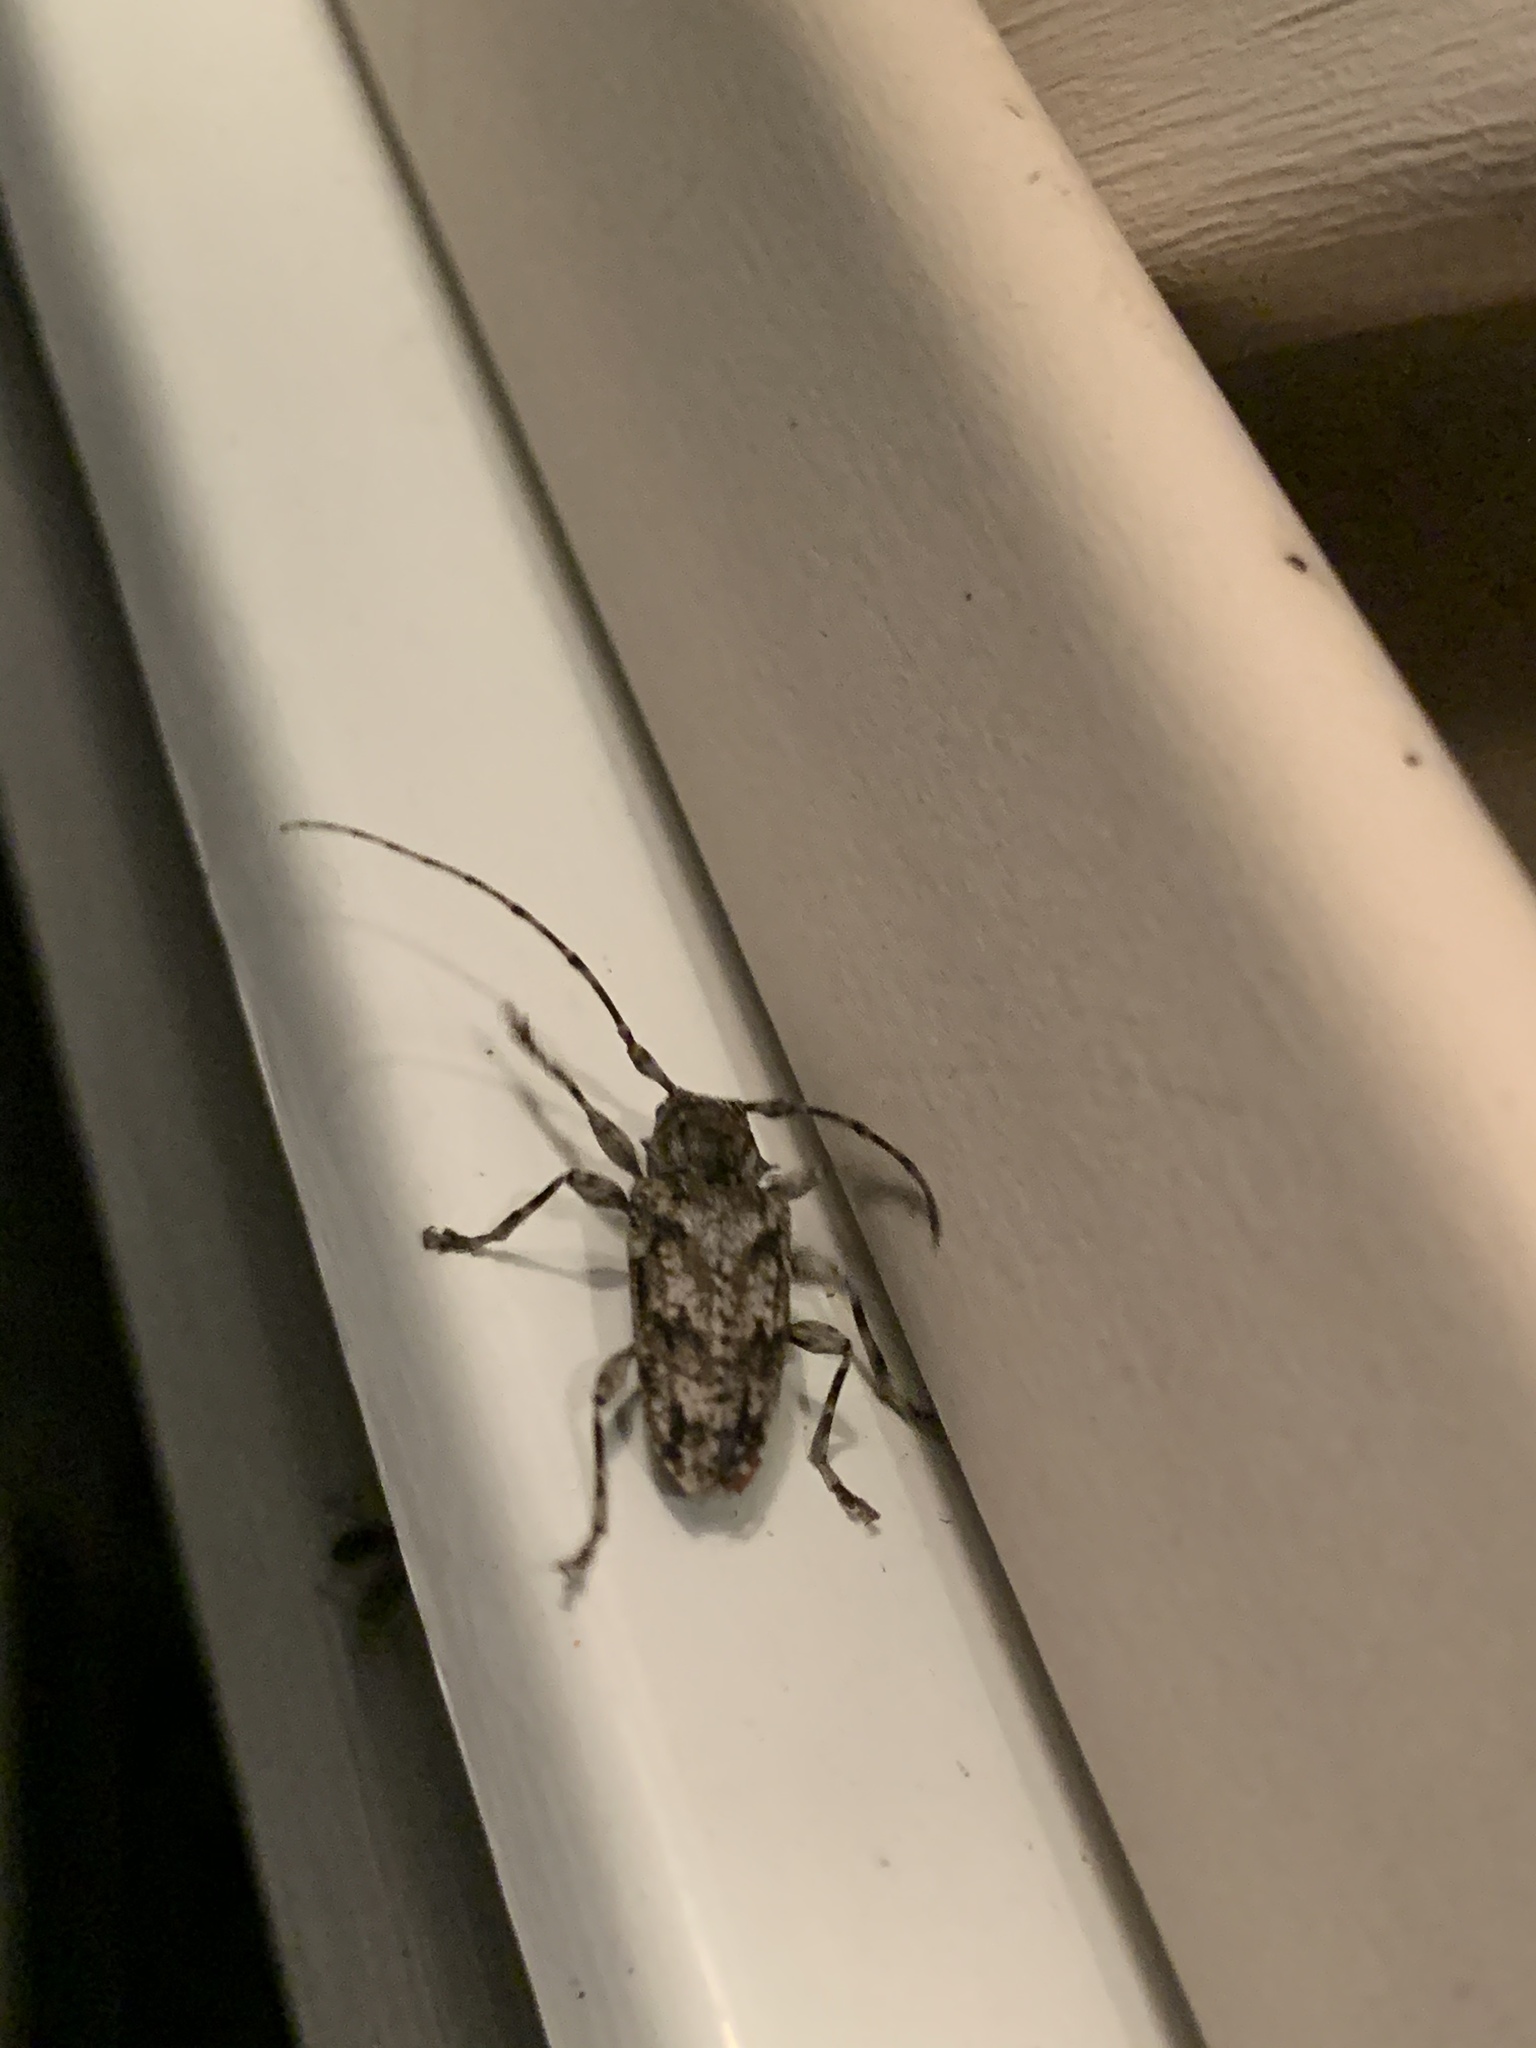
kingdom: Animalia
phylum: Arthropoda
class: Insecta
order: Coleoptera
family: Cerambycidae
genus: Aegomorphus
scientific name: Aegomorphus modestus
